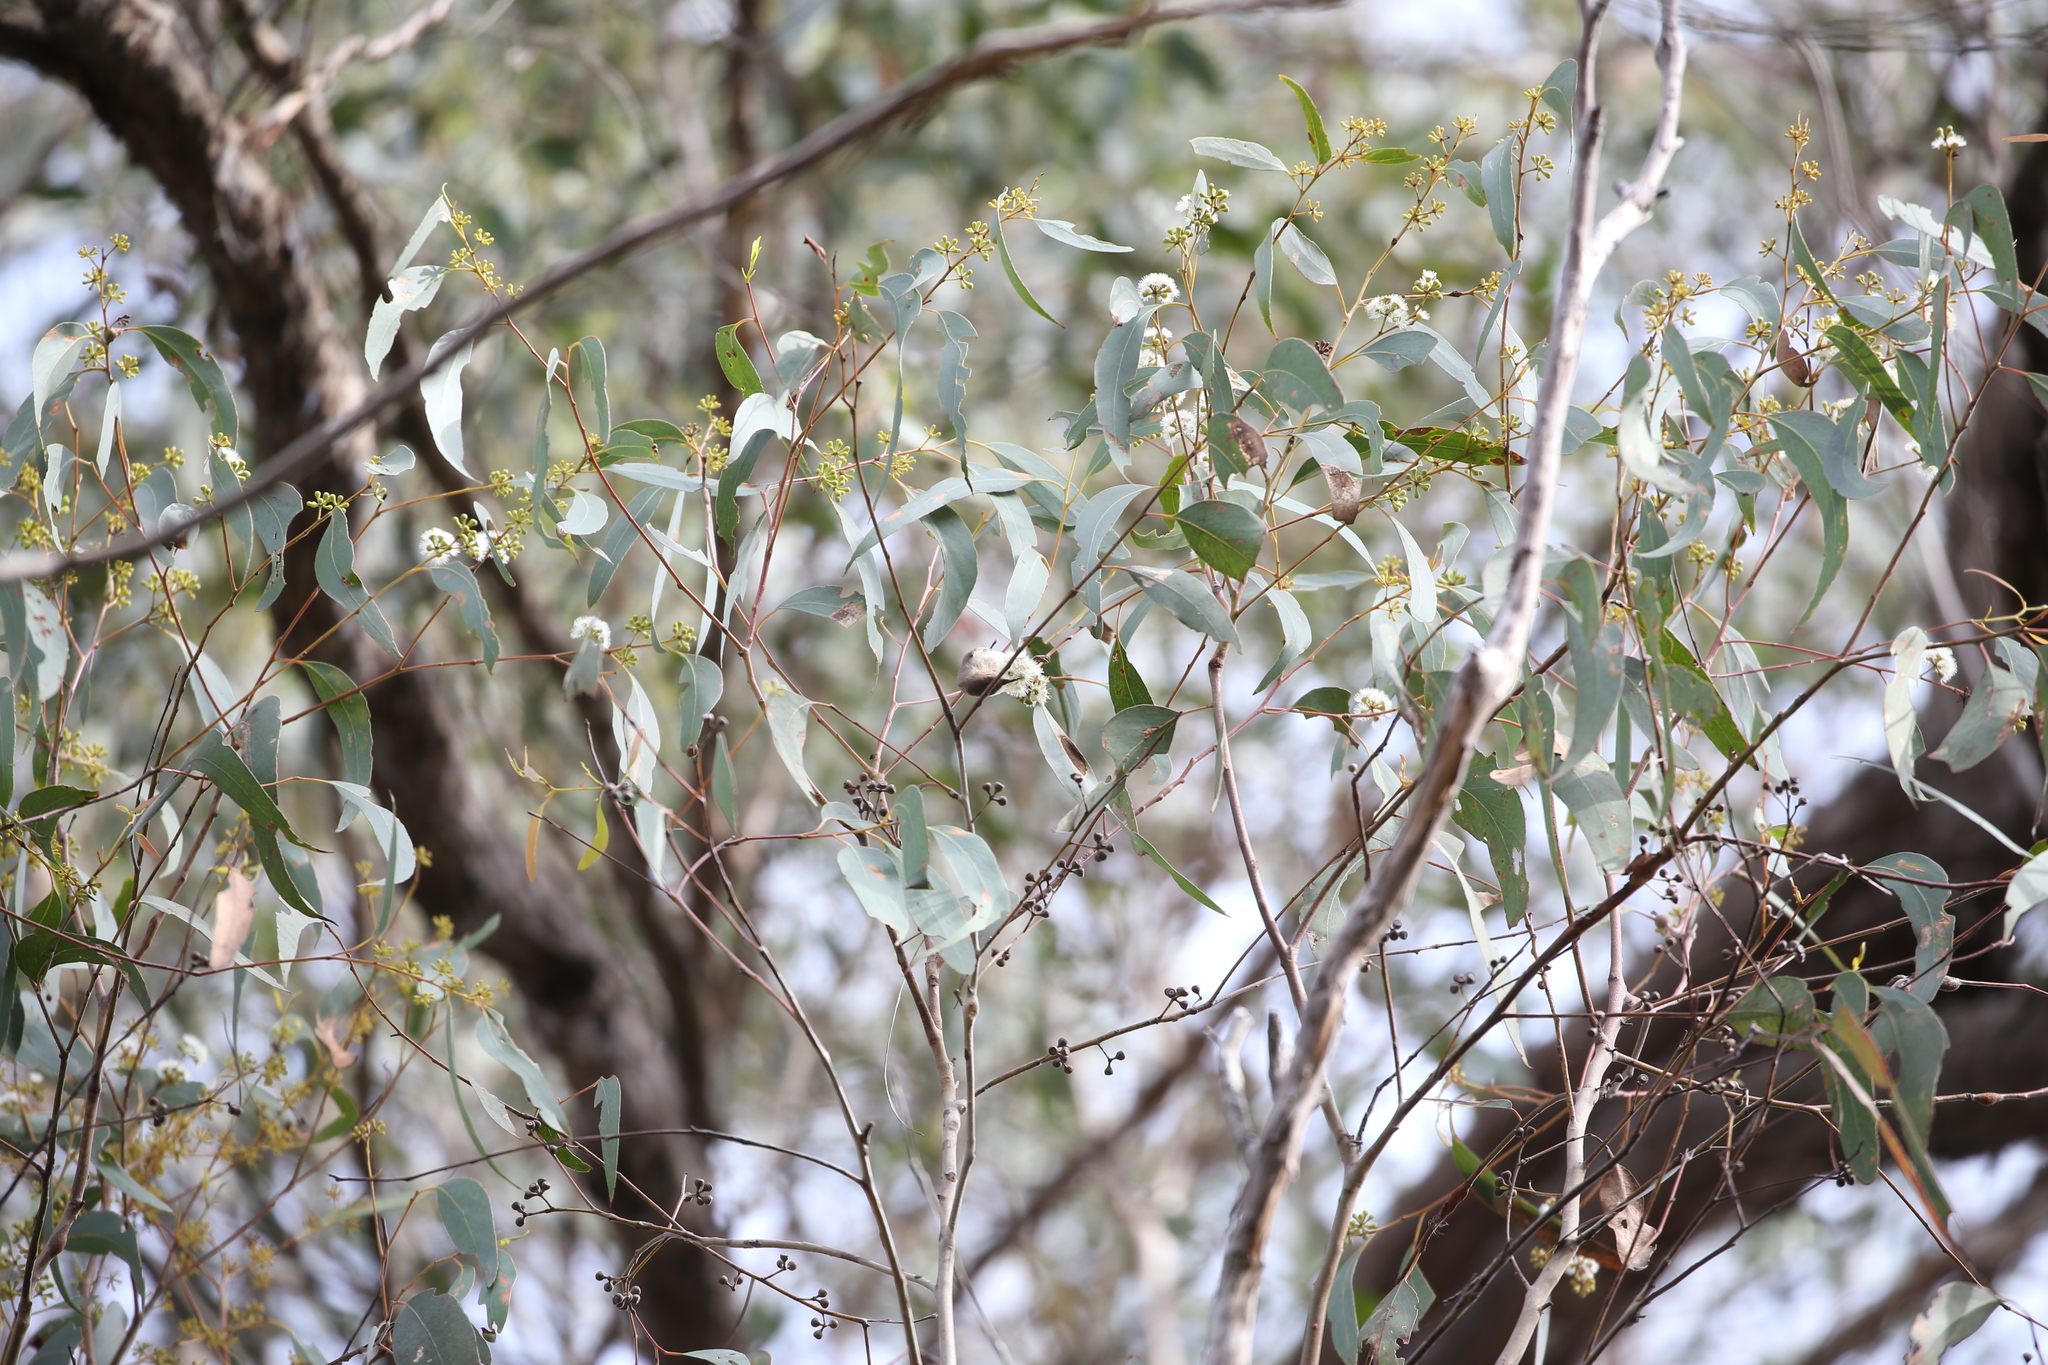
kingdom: Animalia
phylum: Chordata
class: Aves
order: Passeriformes
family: Meliphagidae
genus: Myzomela
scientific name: Myzomela sanguinolenta
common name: Scarlet myzomela
